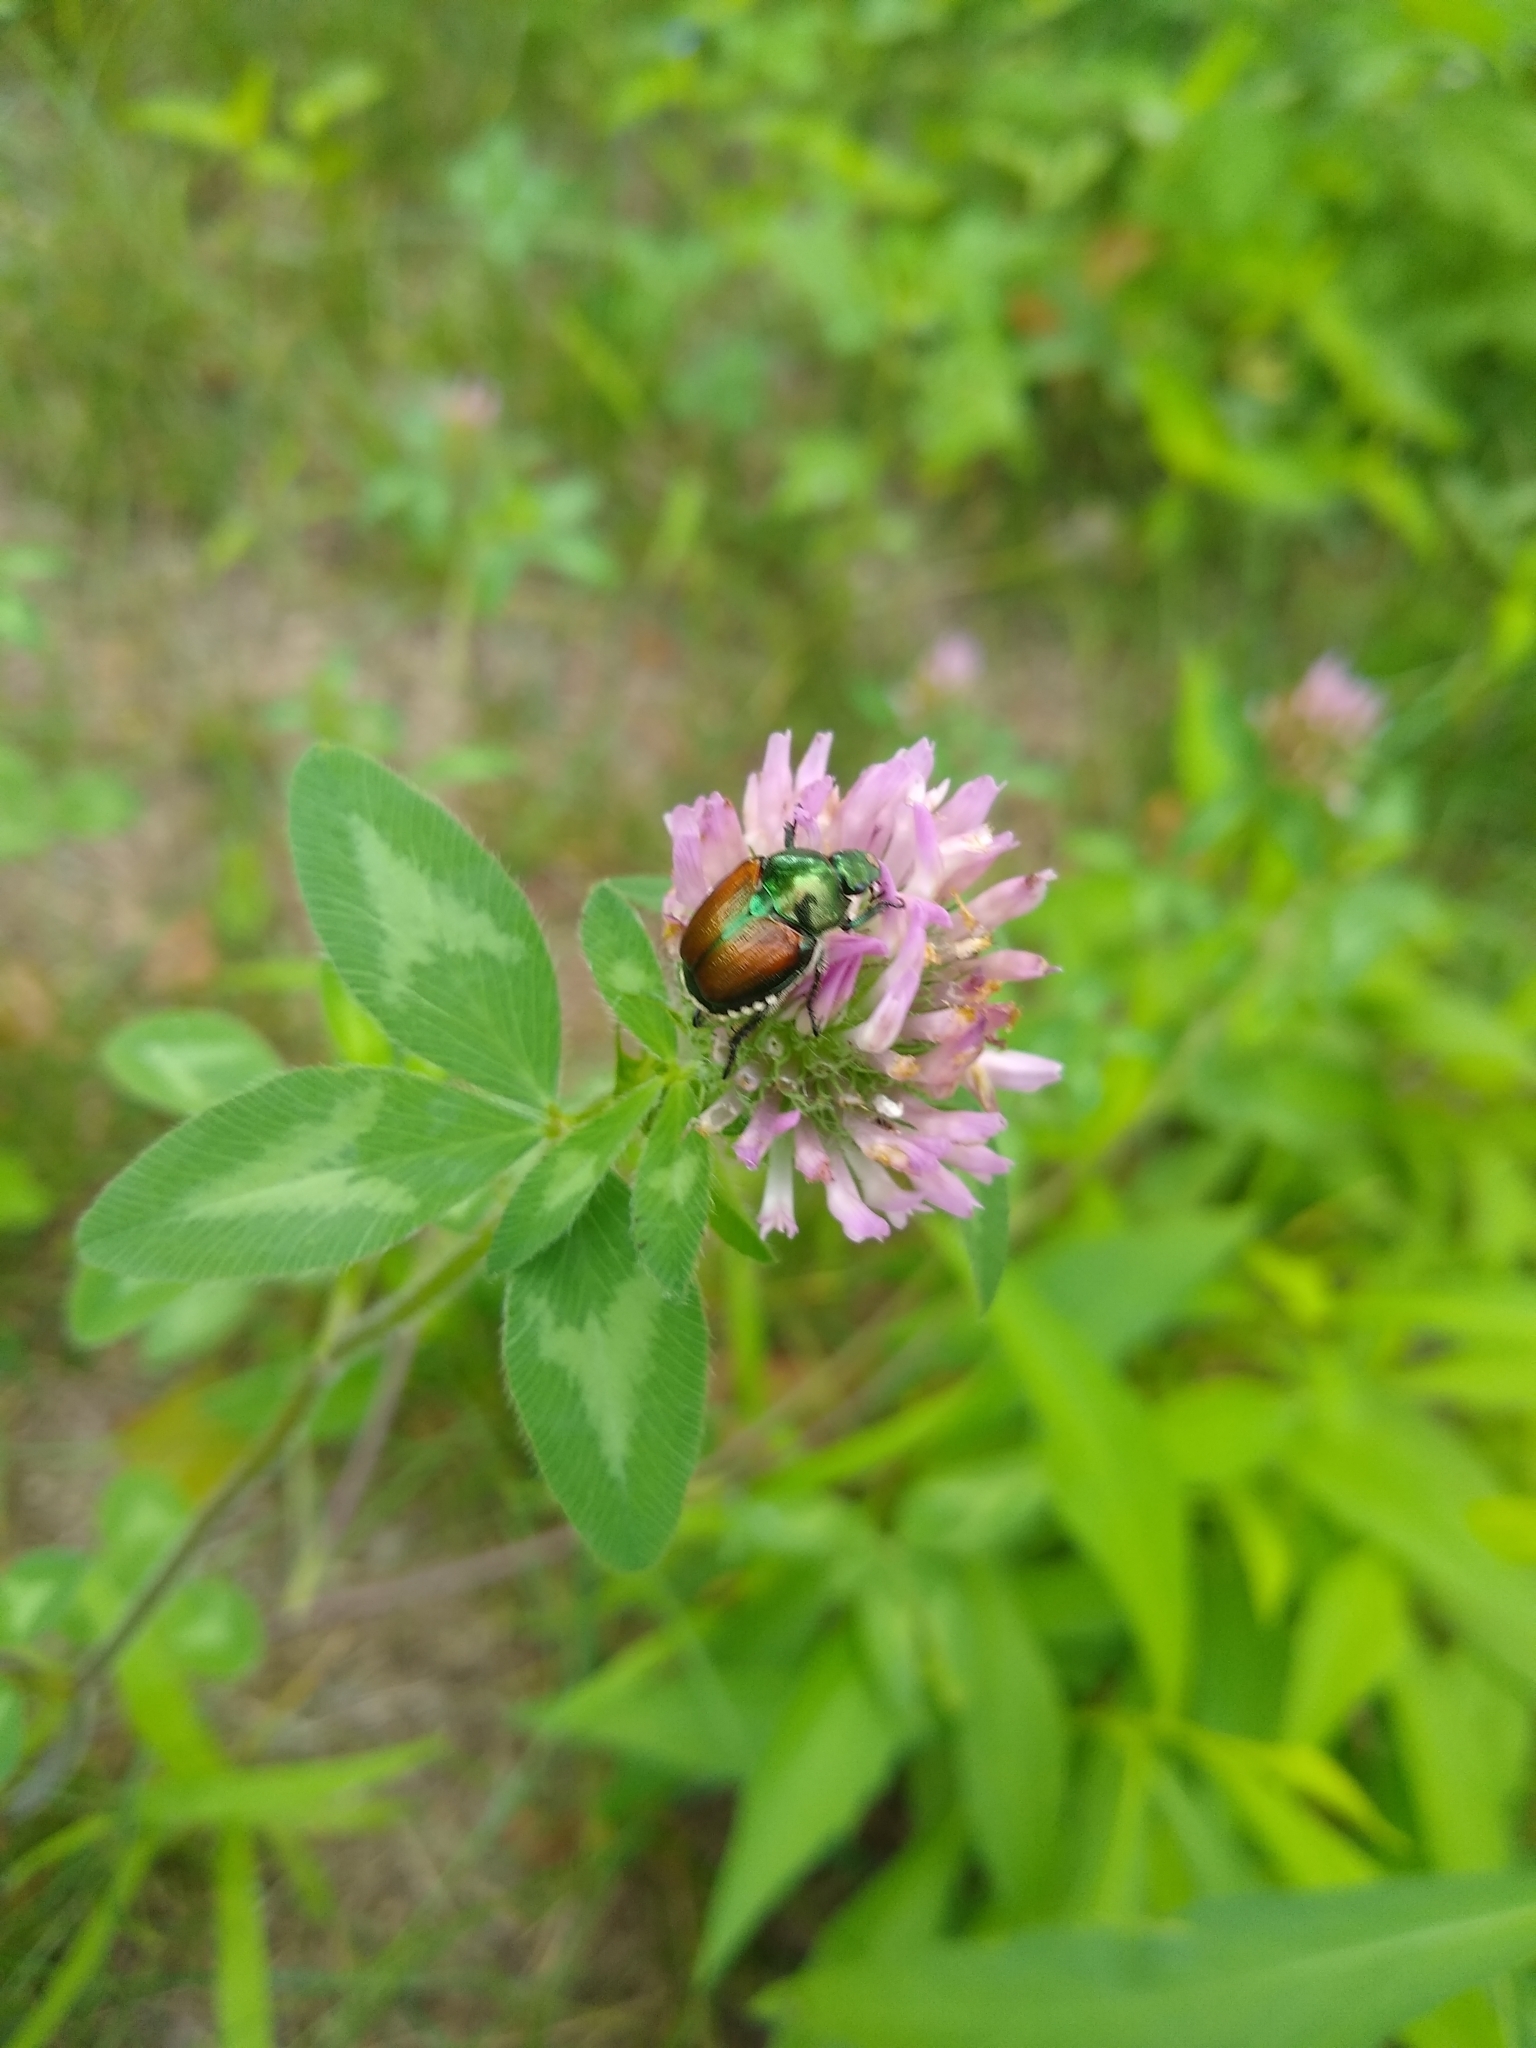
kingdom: Plantae
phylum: Tracheophyta
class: Magnoliopsida
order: Fabales
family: Fabaceae
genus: Trifolium
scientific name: Trifolium pratense
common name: Red clover
